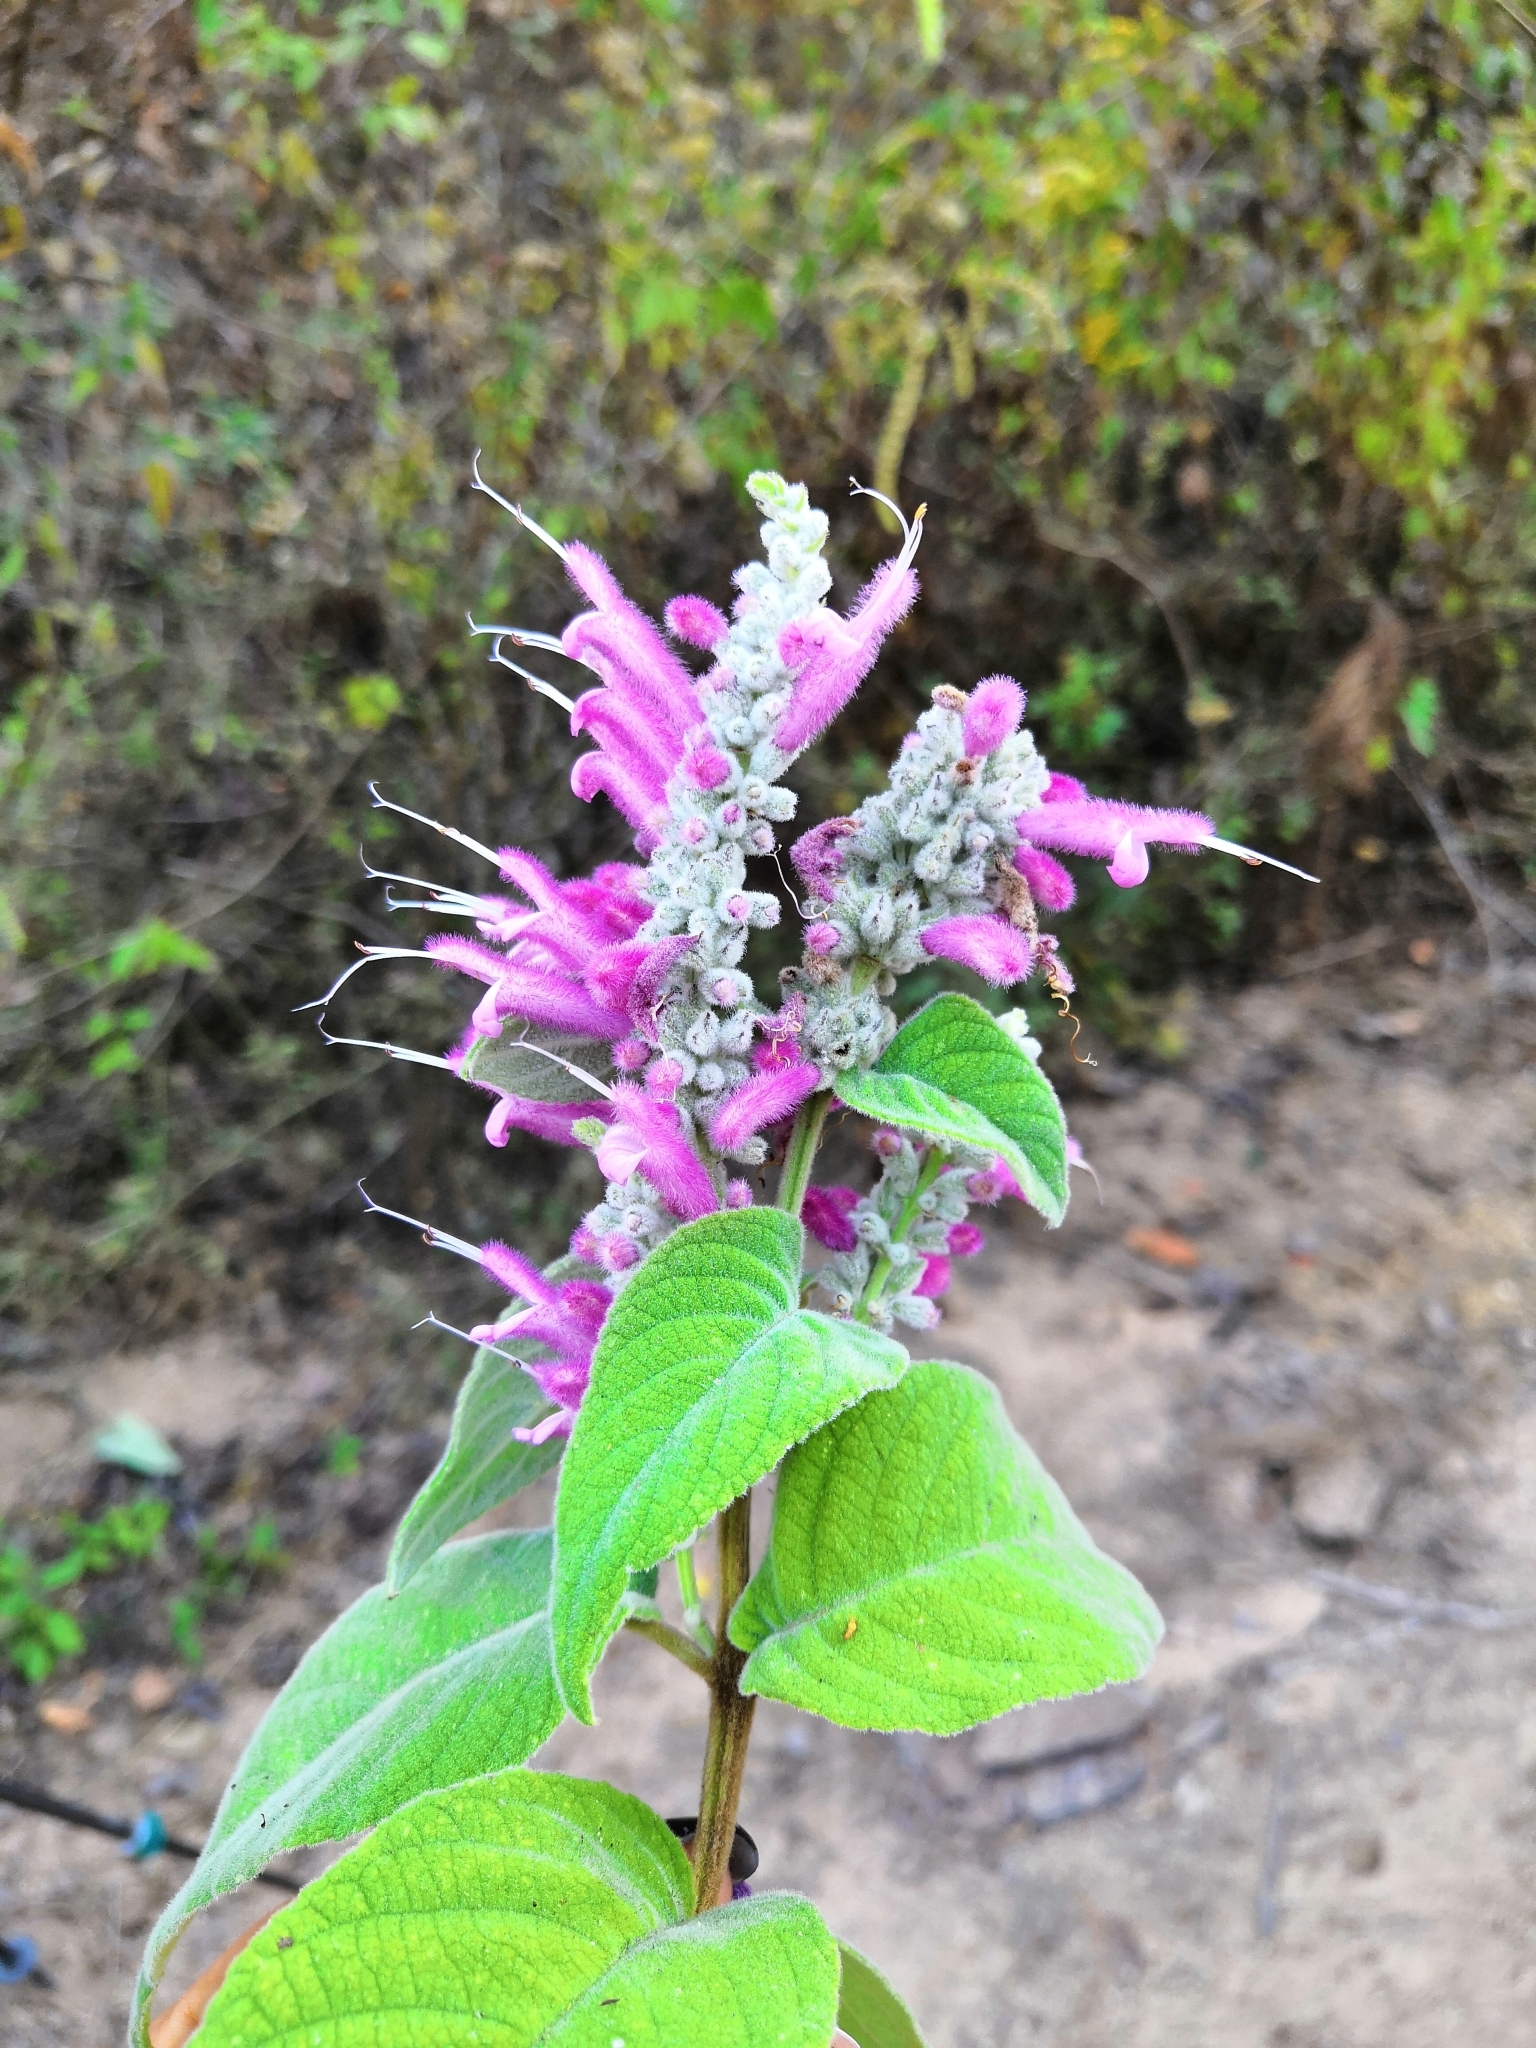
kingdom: Plantae
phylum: Tracheophyta
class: Magnoliopsida
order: Lamiales
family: Lamiaceae
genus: Salvia
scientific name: Salvia iodantha
